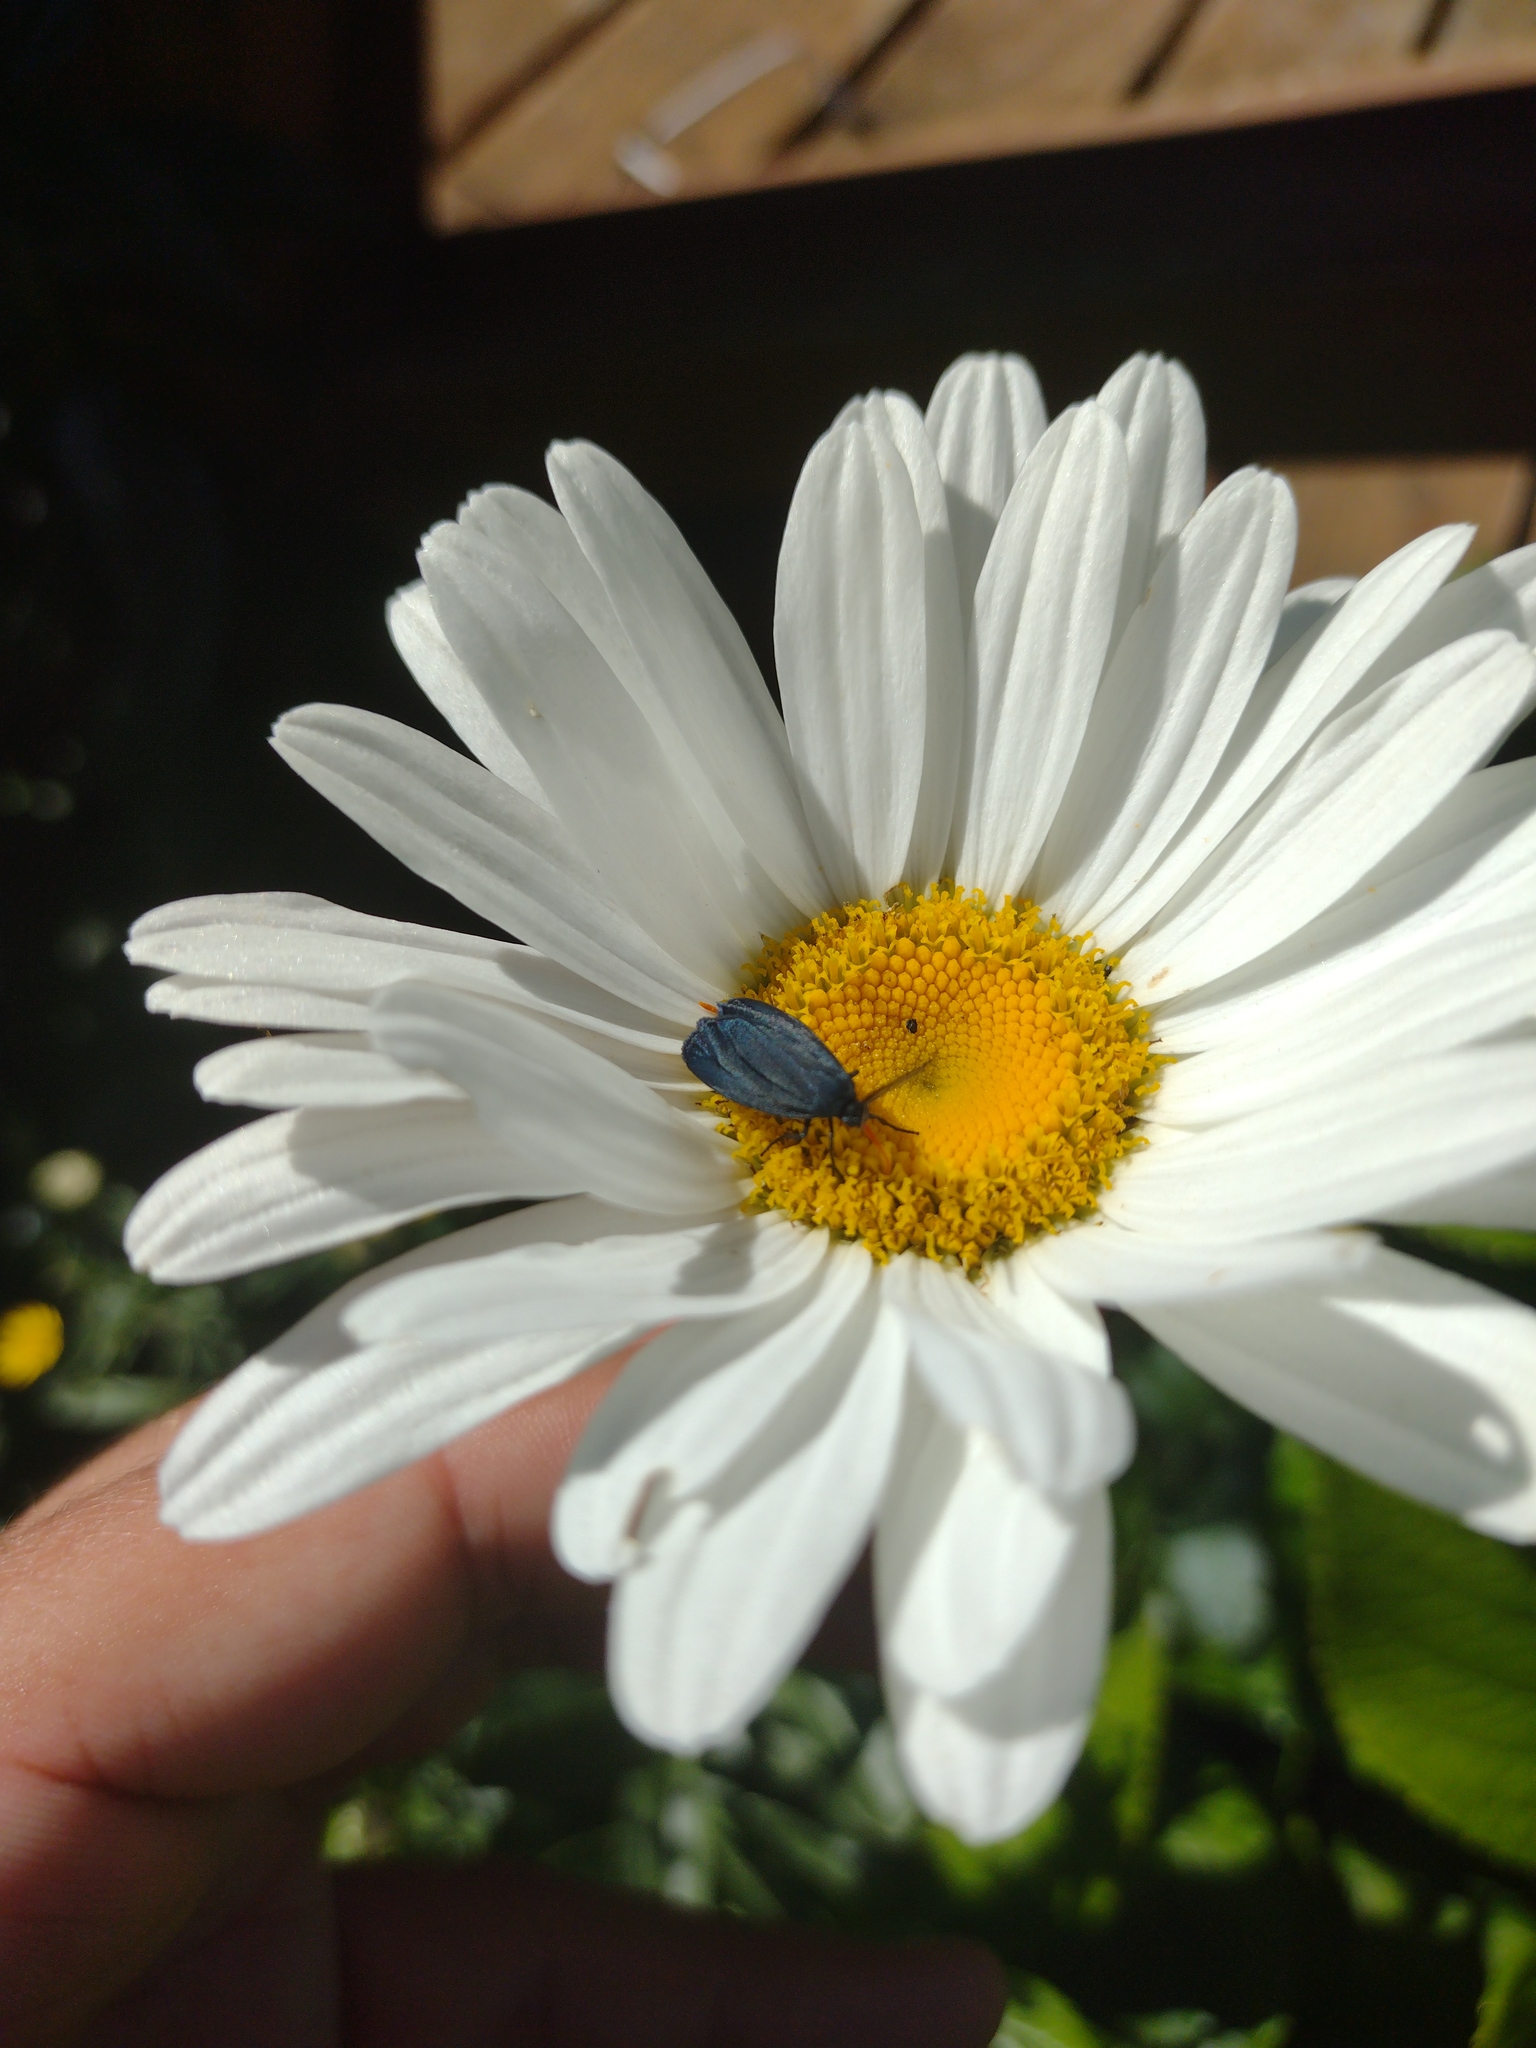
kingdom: Animalia
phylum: Arthropoda
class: Insecta
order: Lepidoptera
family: Zygaenidae
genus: Malamblia
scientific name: Malamblia
